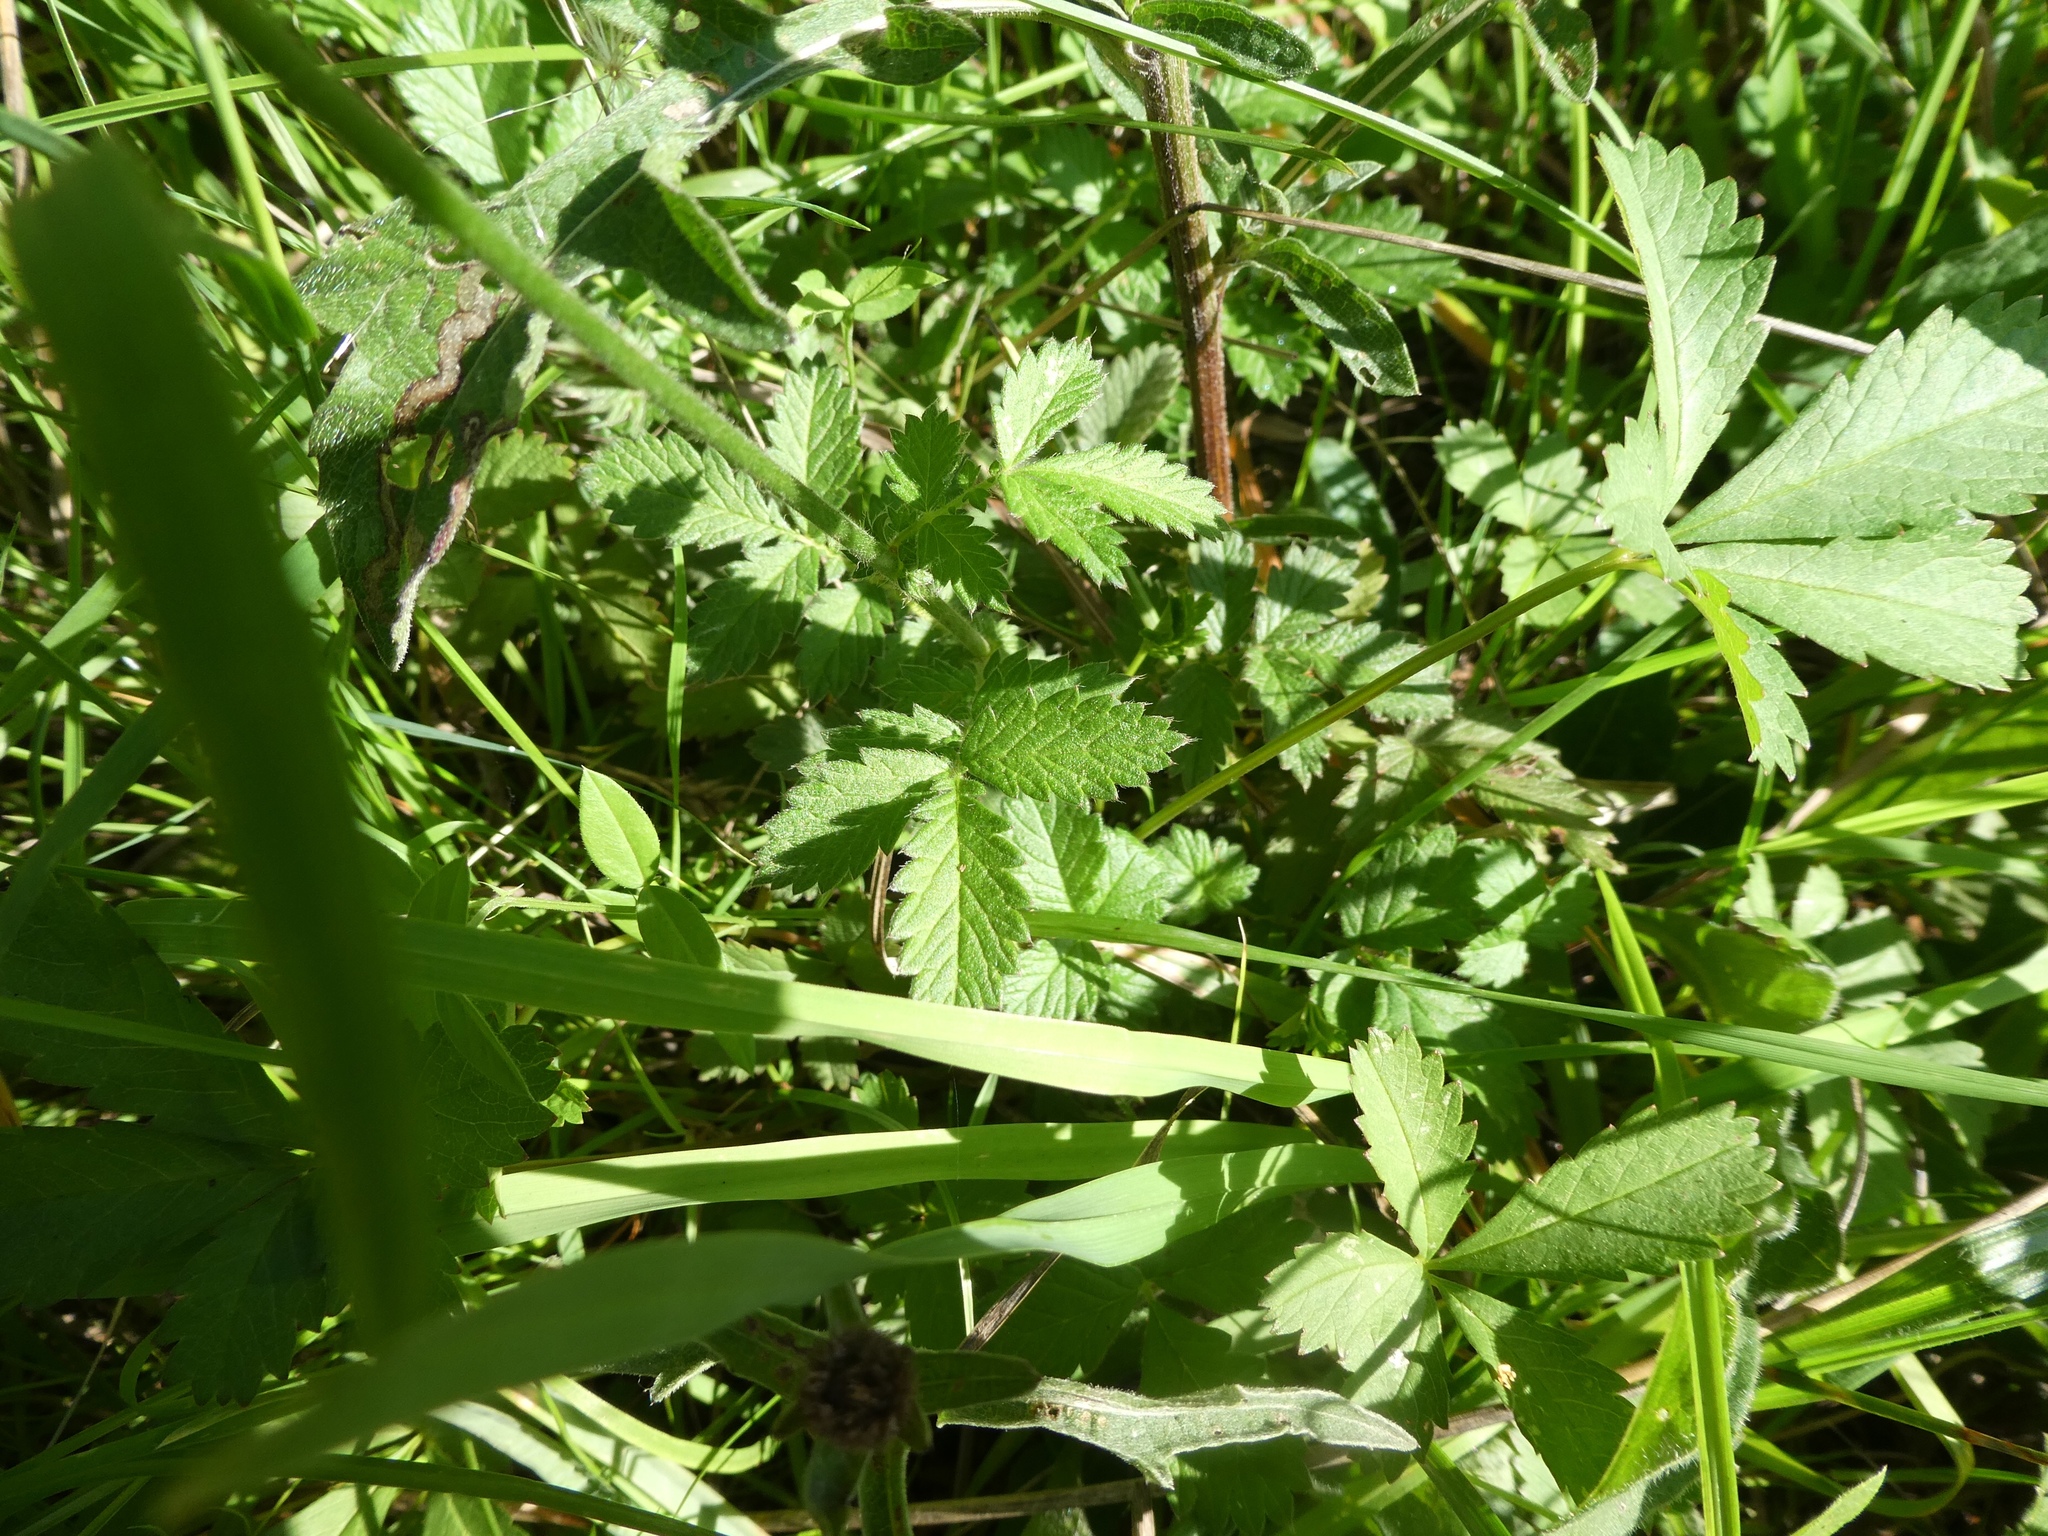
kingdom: Plantae
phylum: Tracheophyta
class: Magnoliopsida
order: Rosales
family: Rosaceae
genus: Agrimonia
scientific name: Agrimonia eupatoria
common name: Agrimony
